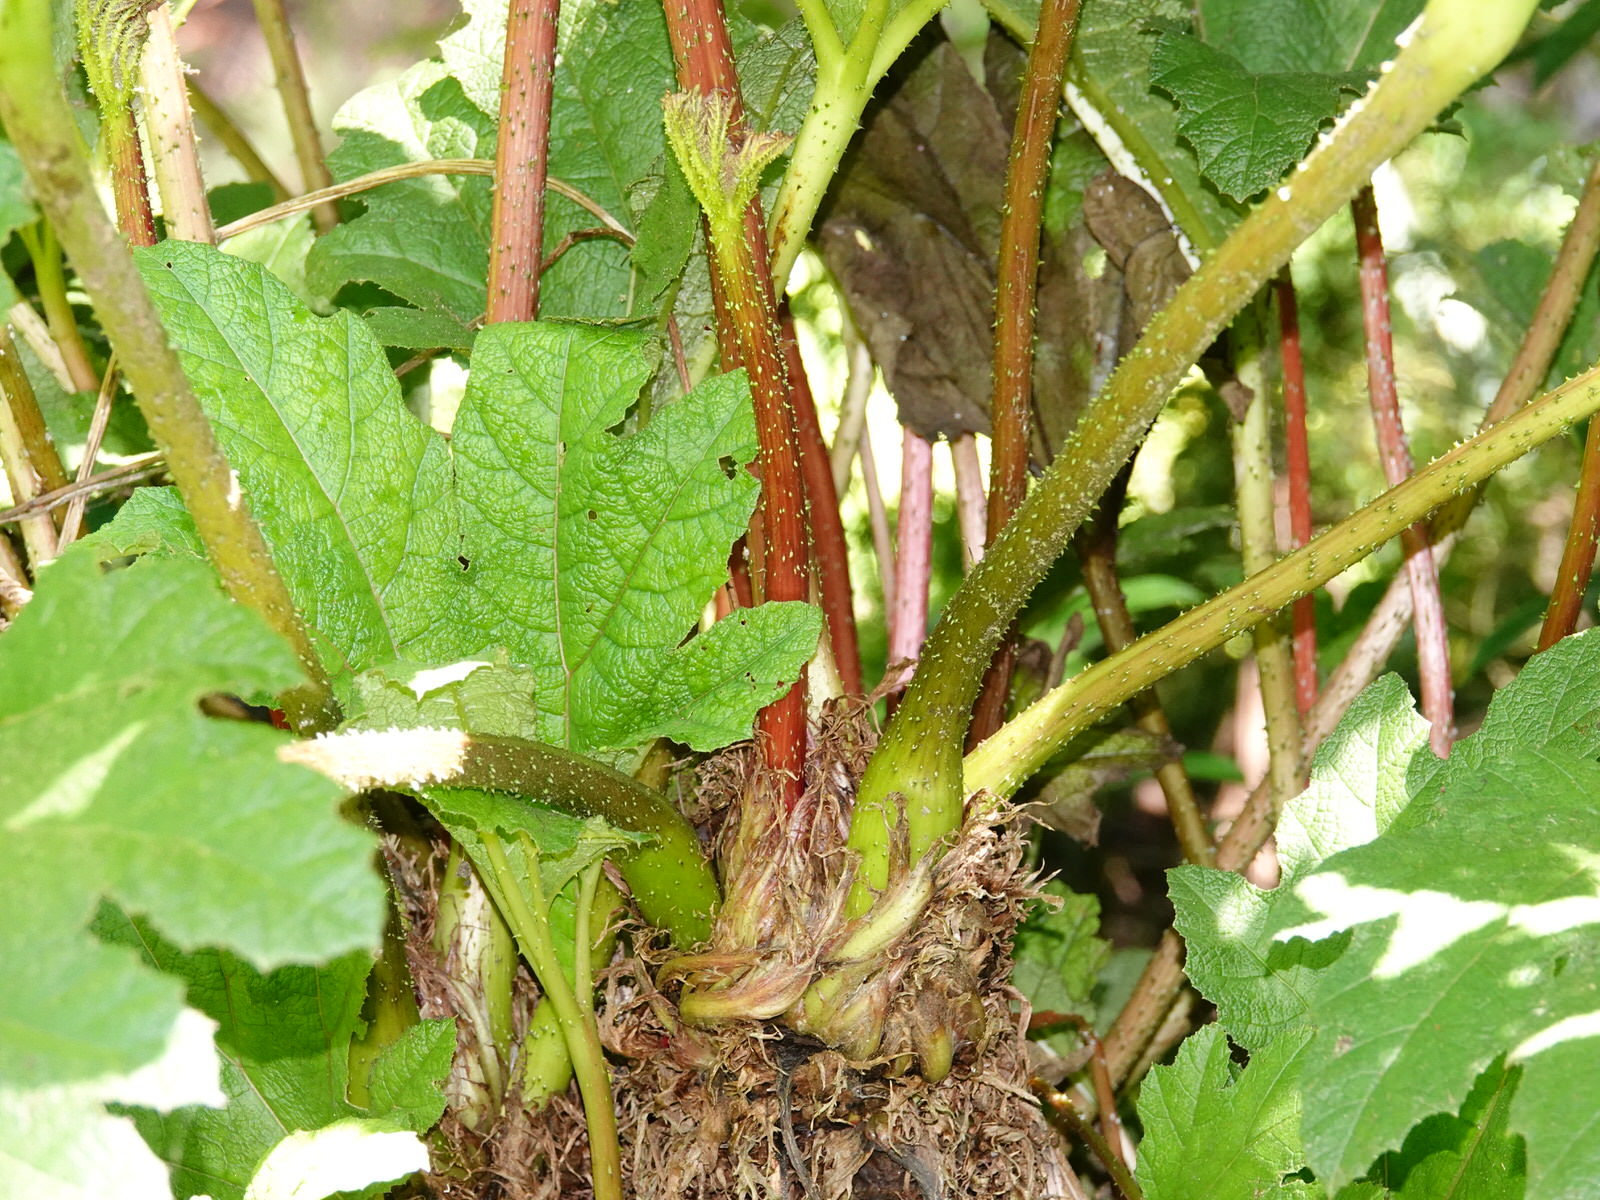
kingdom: Plantae
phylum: Tracheophyta
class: Magnoliopsida
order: Gunnerales
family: Gunneraceae
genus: Gunnera
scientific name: Gunnera tinctoria
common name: Giant-rhubarb
